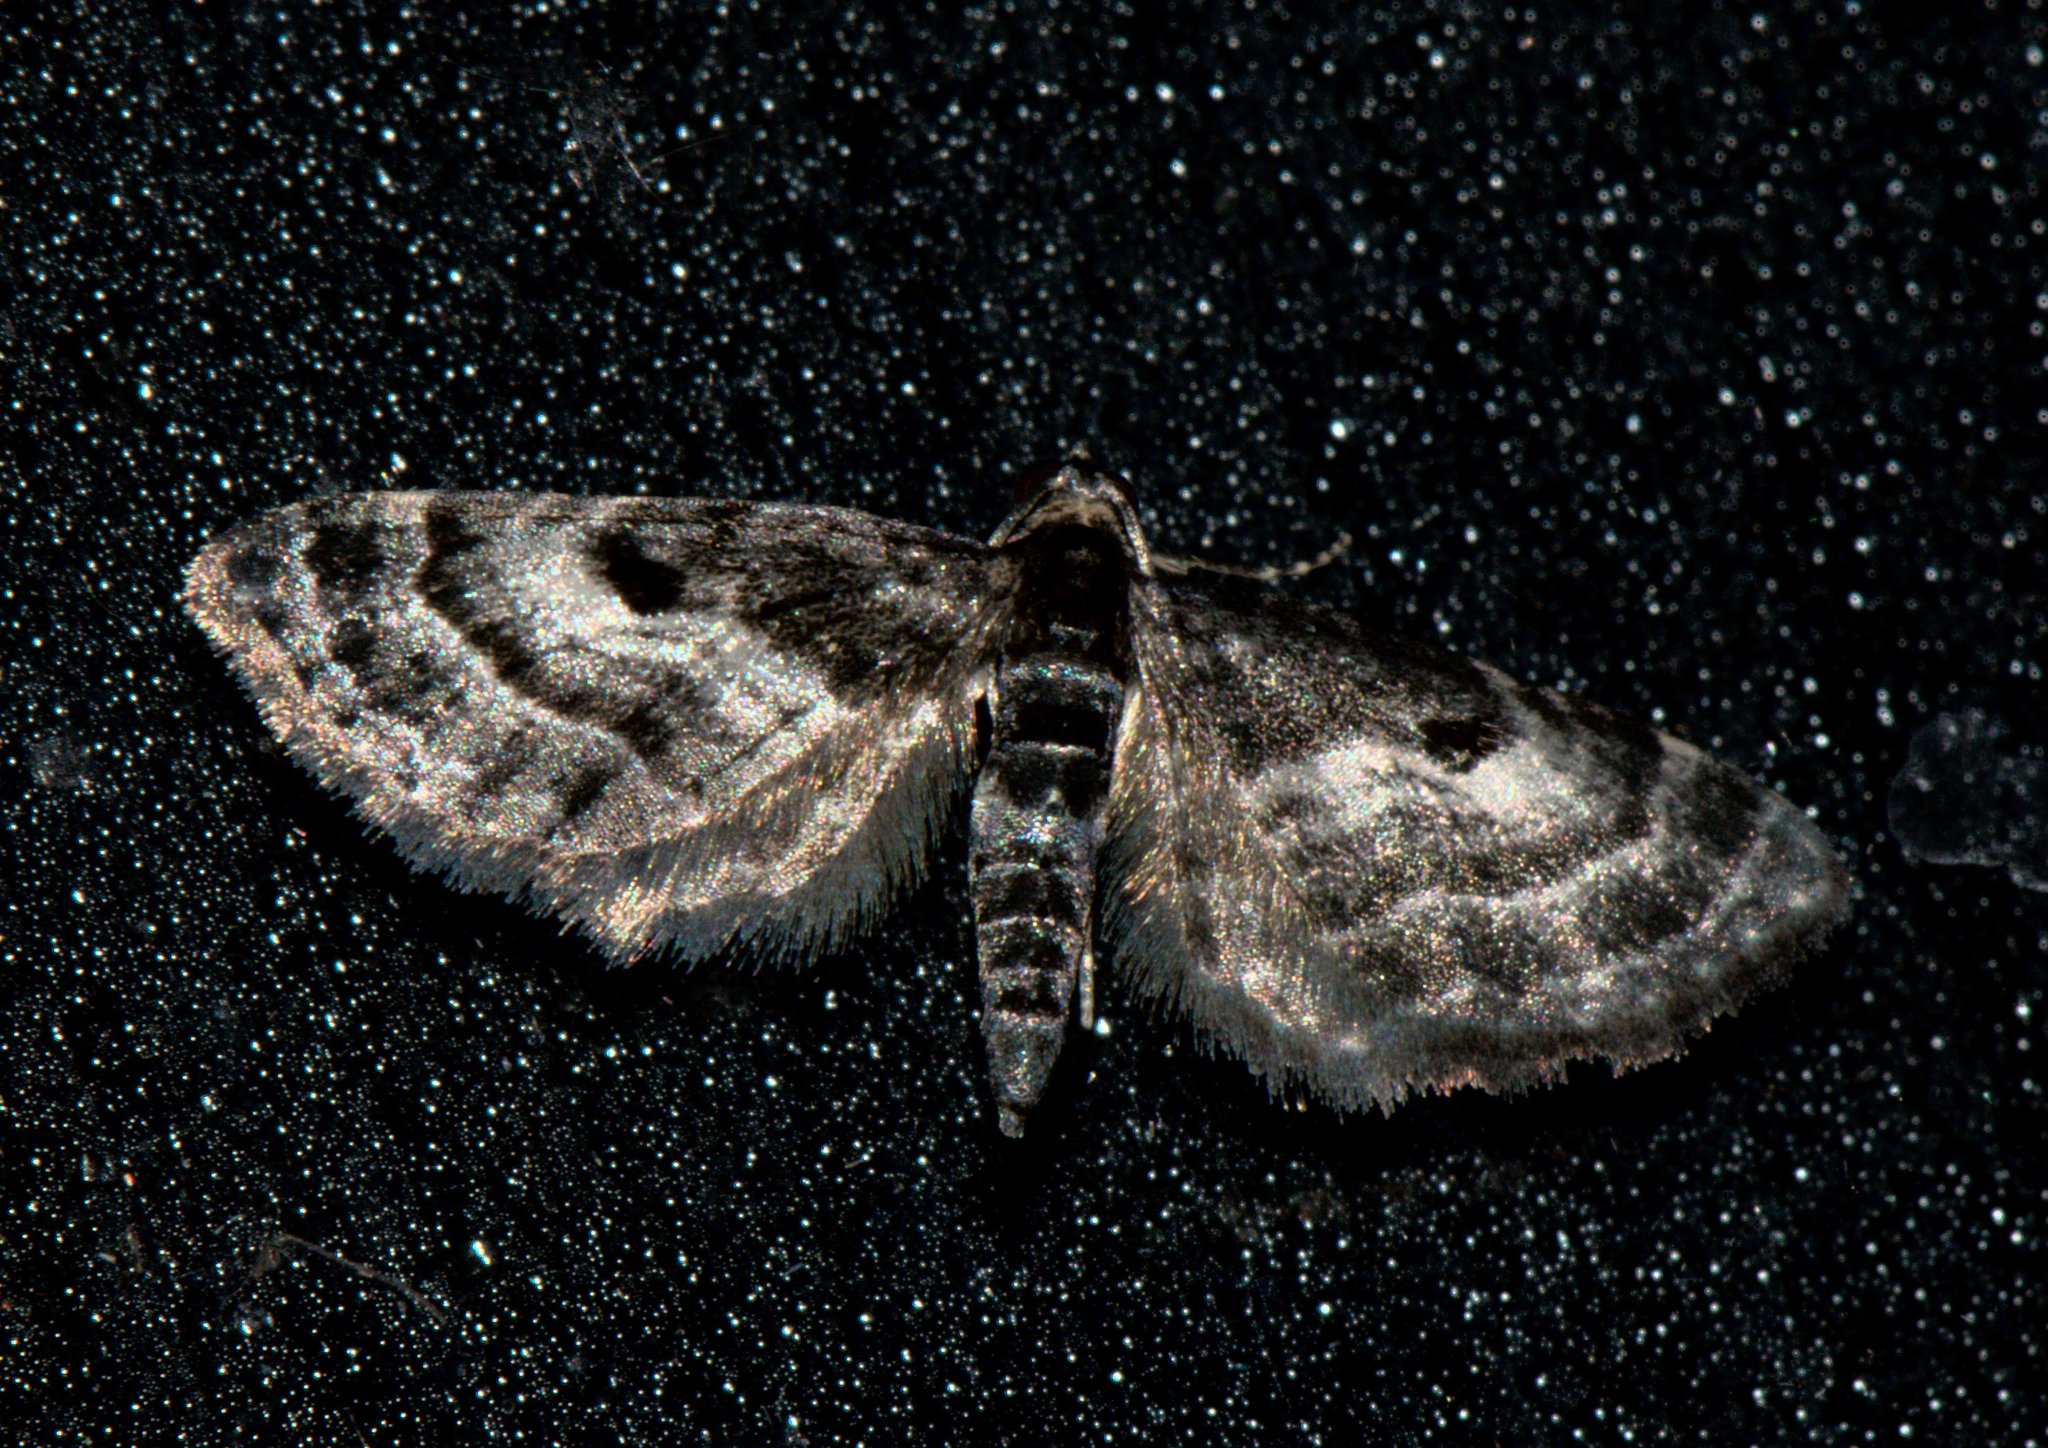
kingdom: Animalia
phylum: Arthropoda
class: Insecta
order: Lepidoptera
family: Geometridae
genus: Eupithecia
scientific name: Eupithecia atrisignis
